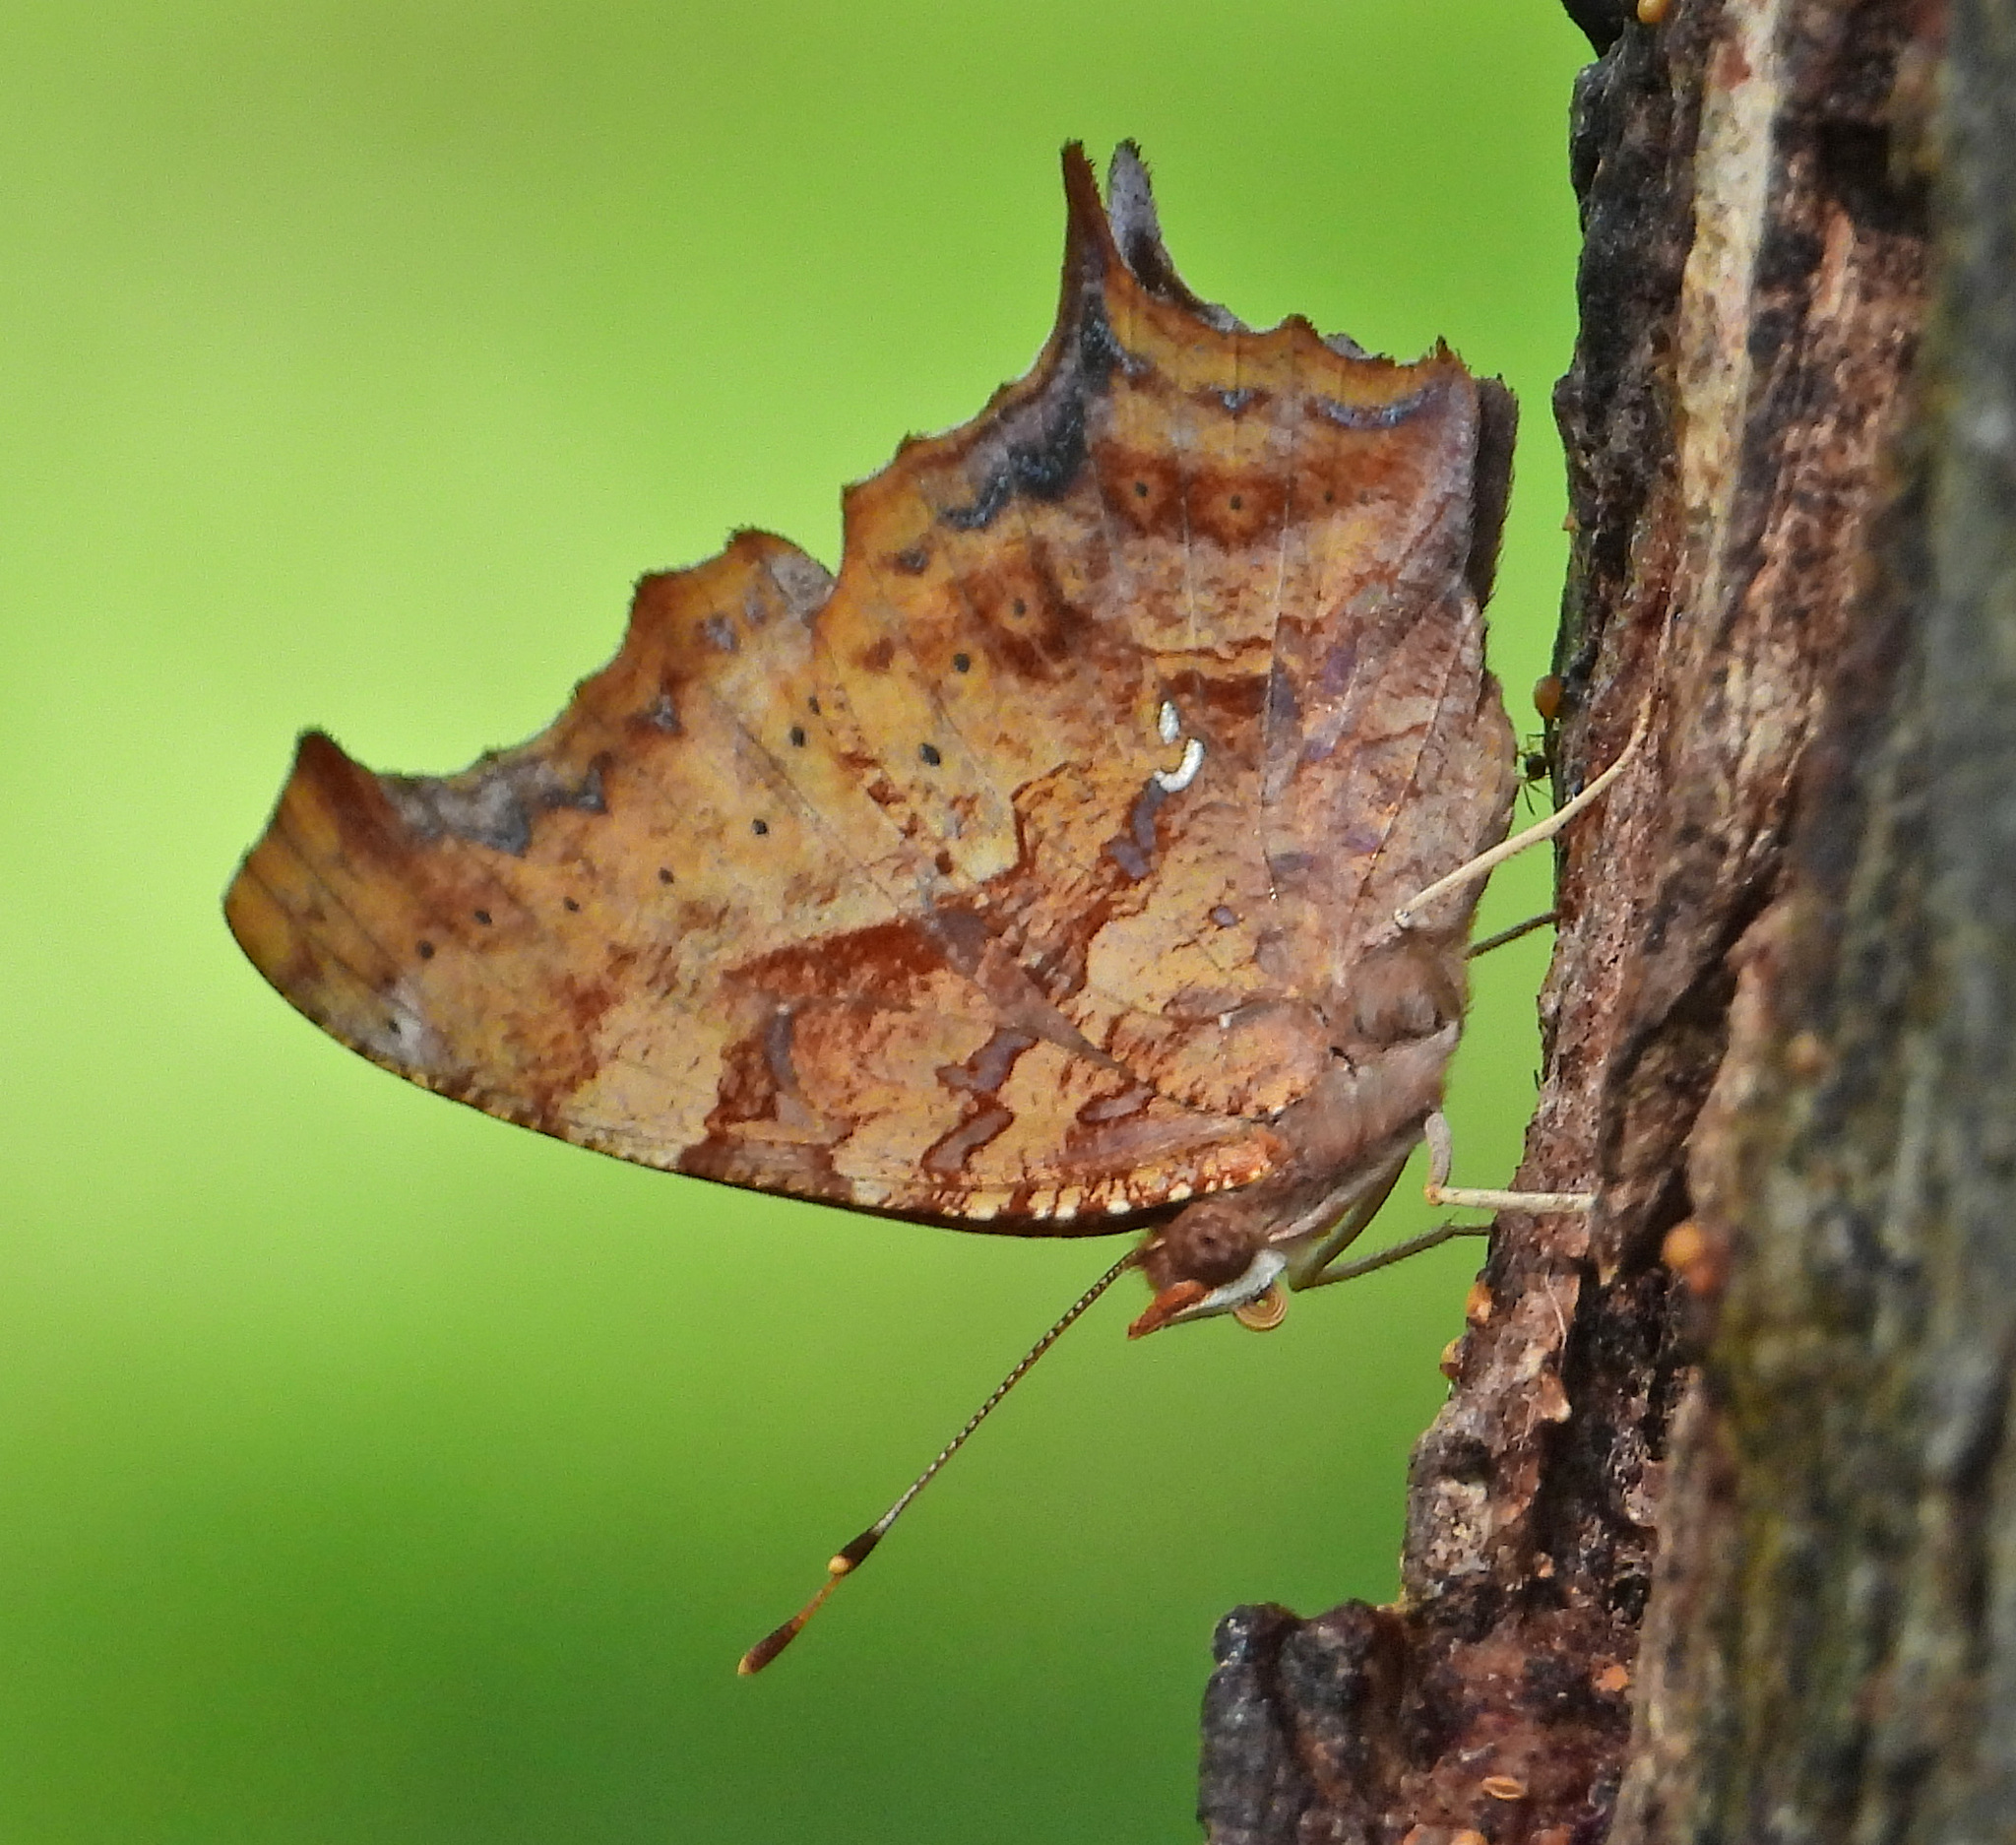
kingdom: Animalia
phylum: Arthropoda
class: Insecta
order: Lepidoptera
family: Nymphalidae
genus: Polygonia
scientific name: Polygonia interrogationis
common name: Question mark
